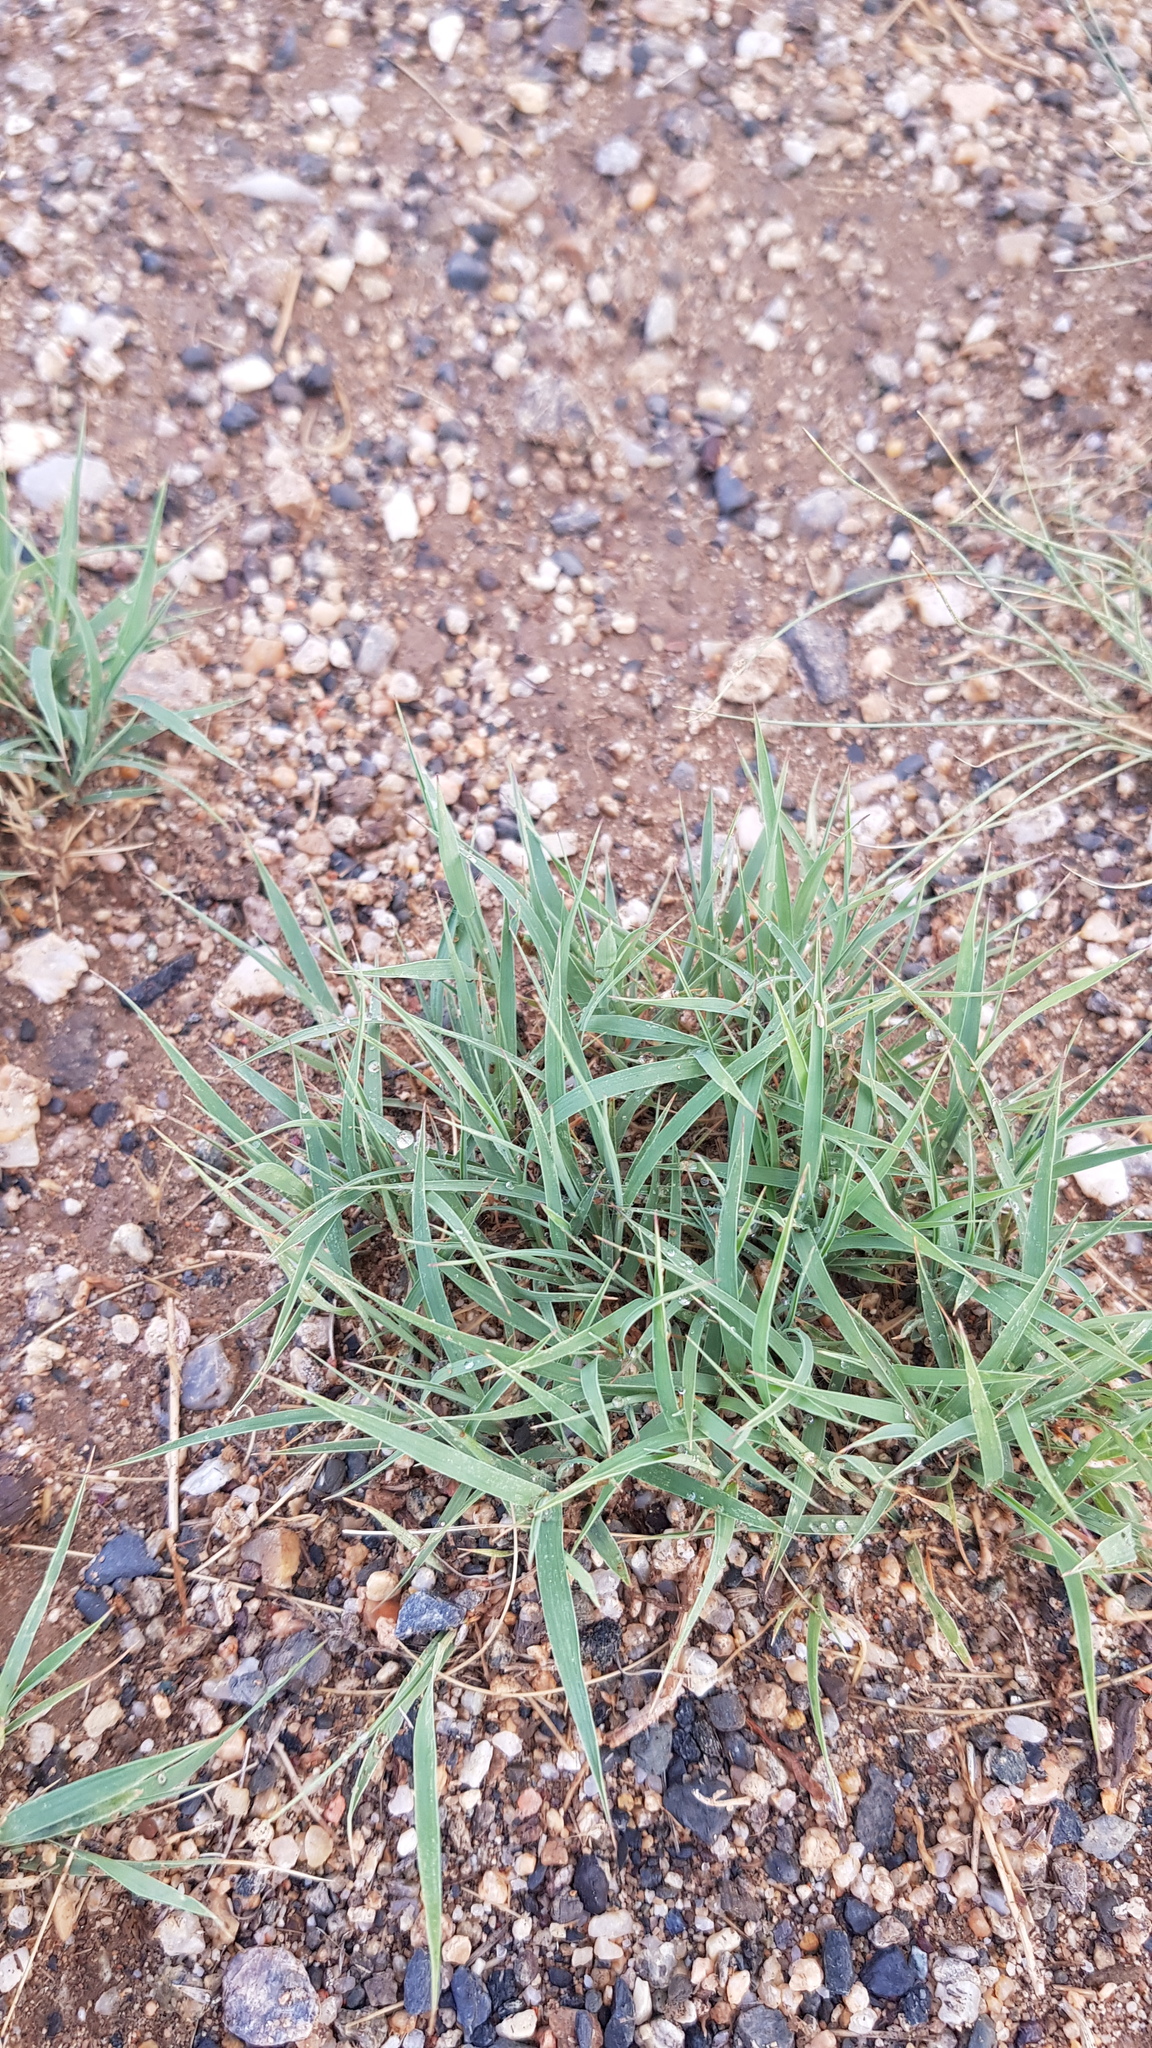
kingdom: Plantae
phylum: Tracheophyta
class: Liliopsida
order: Poales
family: Poaceae
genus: Cleistogenes
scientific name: Cleistogenes squarrosa
